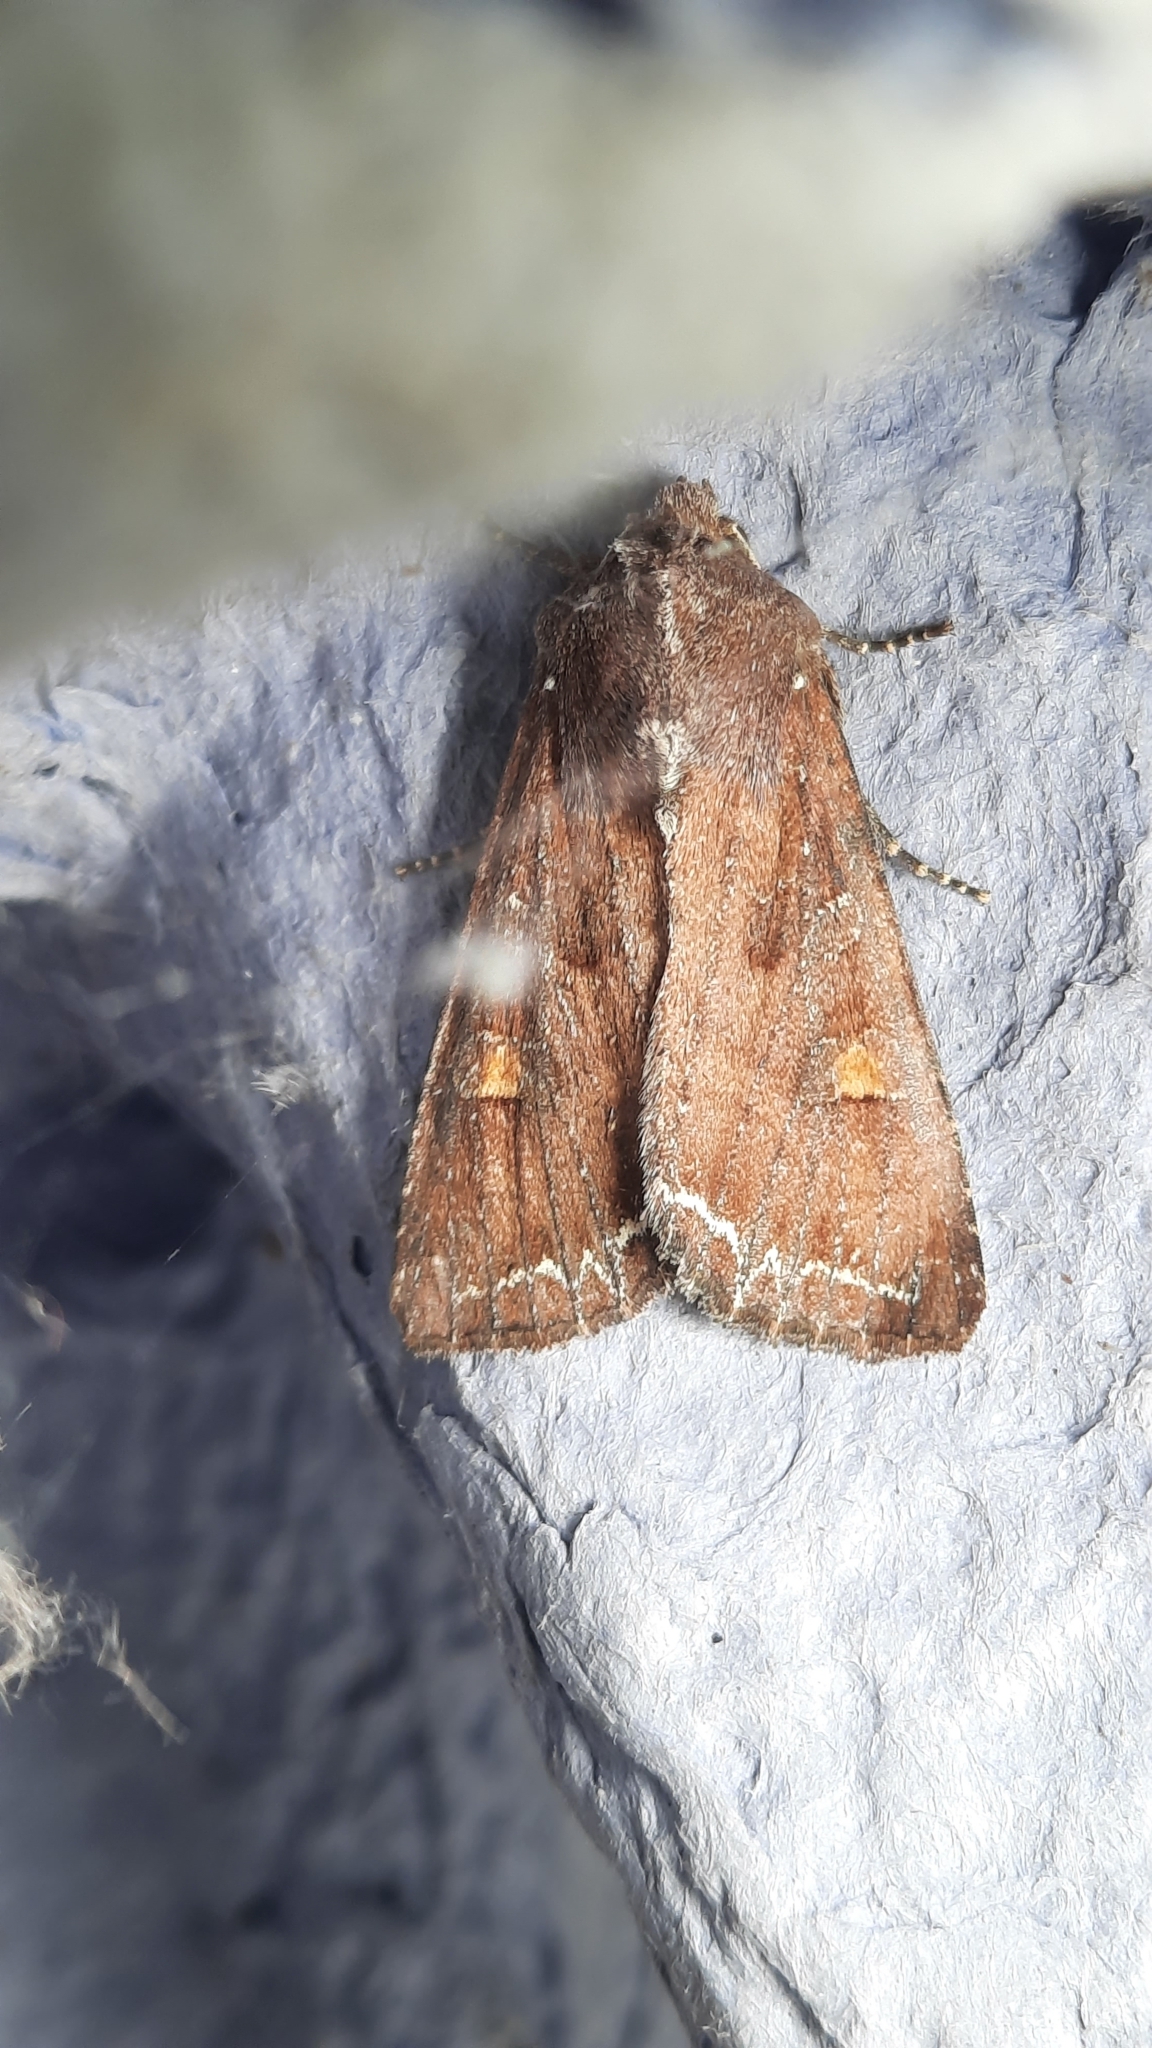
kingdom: Animalia
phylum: Arthropoda
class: Insecta
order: Lepidoptera
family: Noctuidae
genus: Lacanobia
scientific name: Lacanobia oleracea
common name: Bright-line brown-eye
